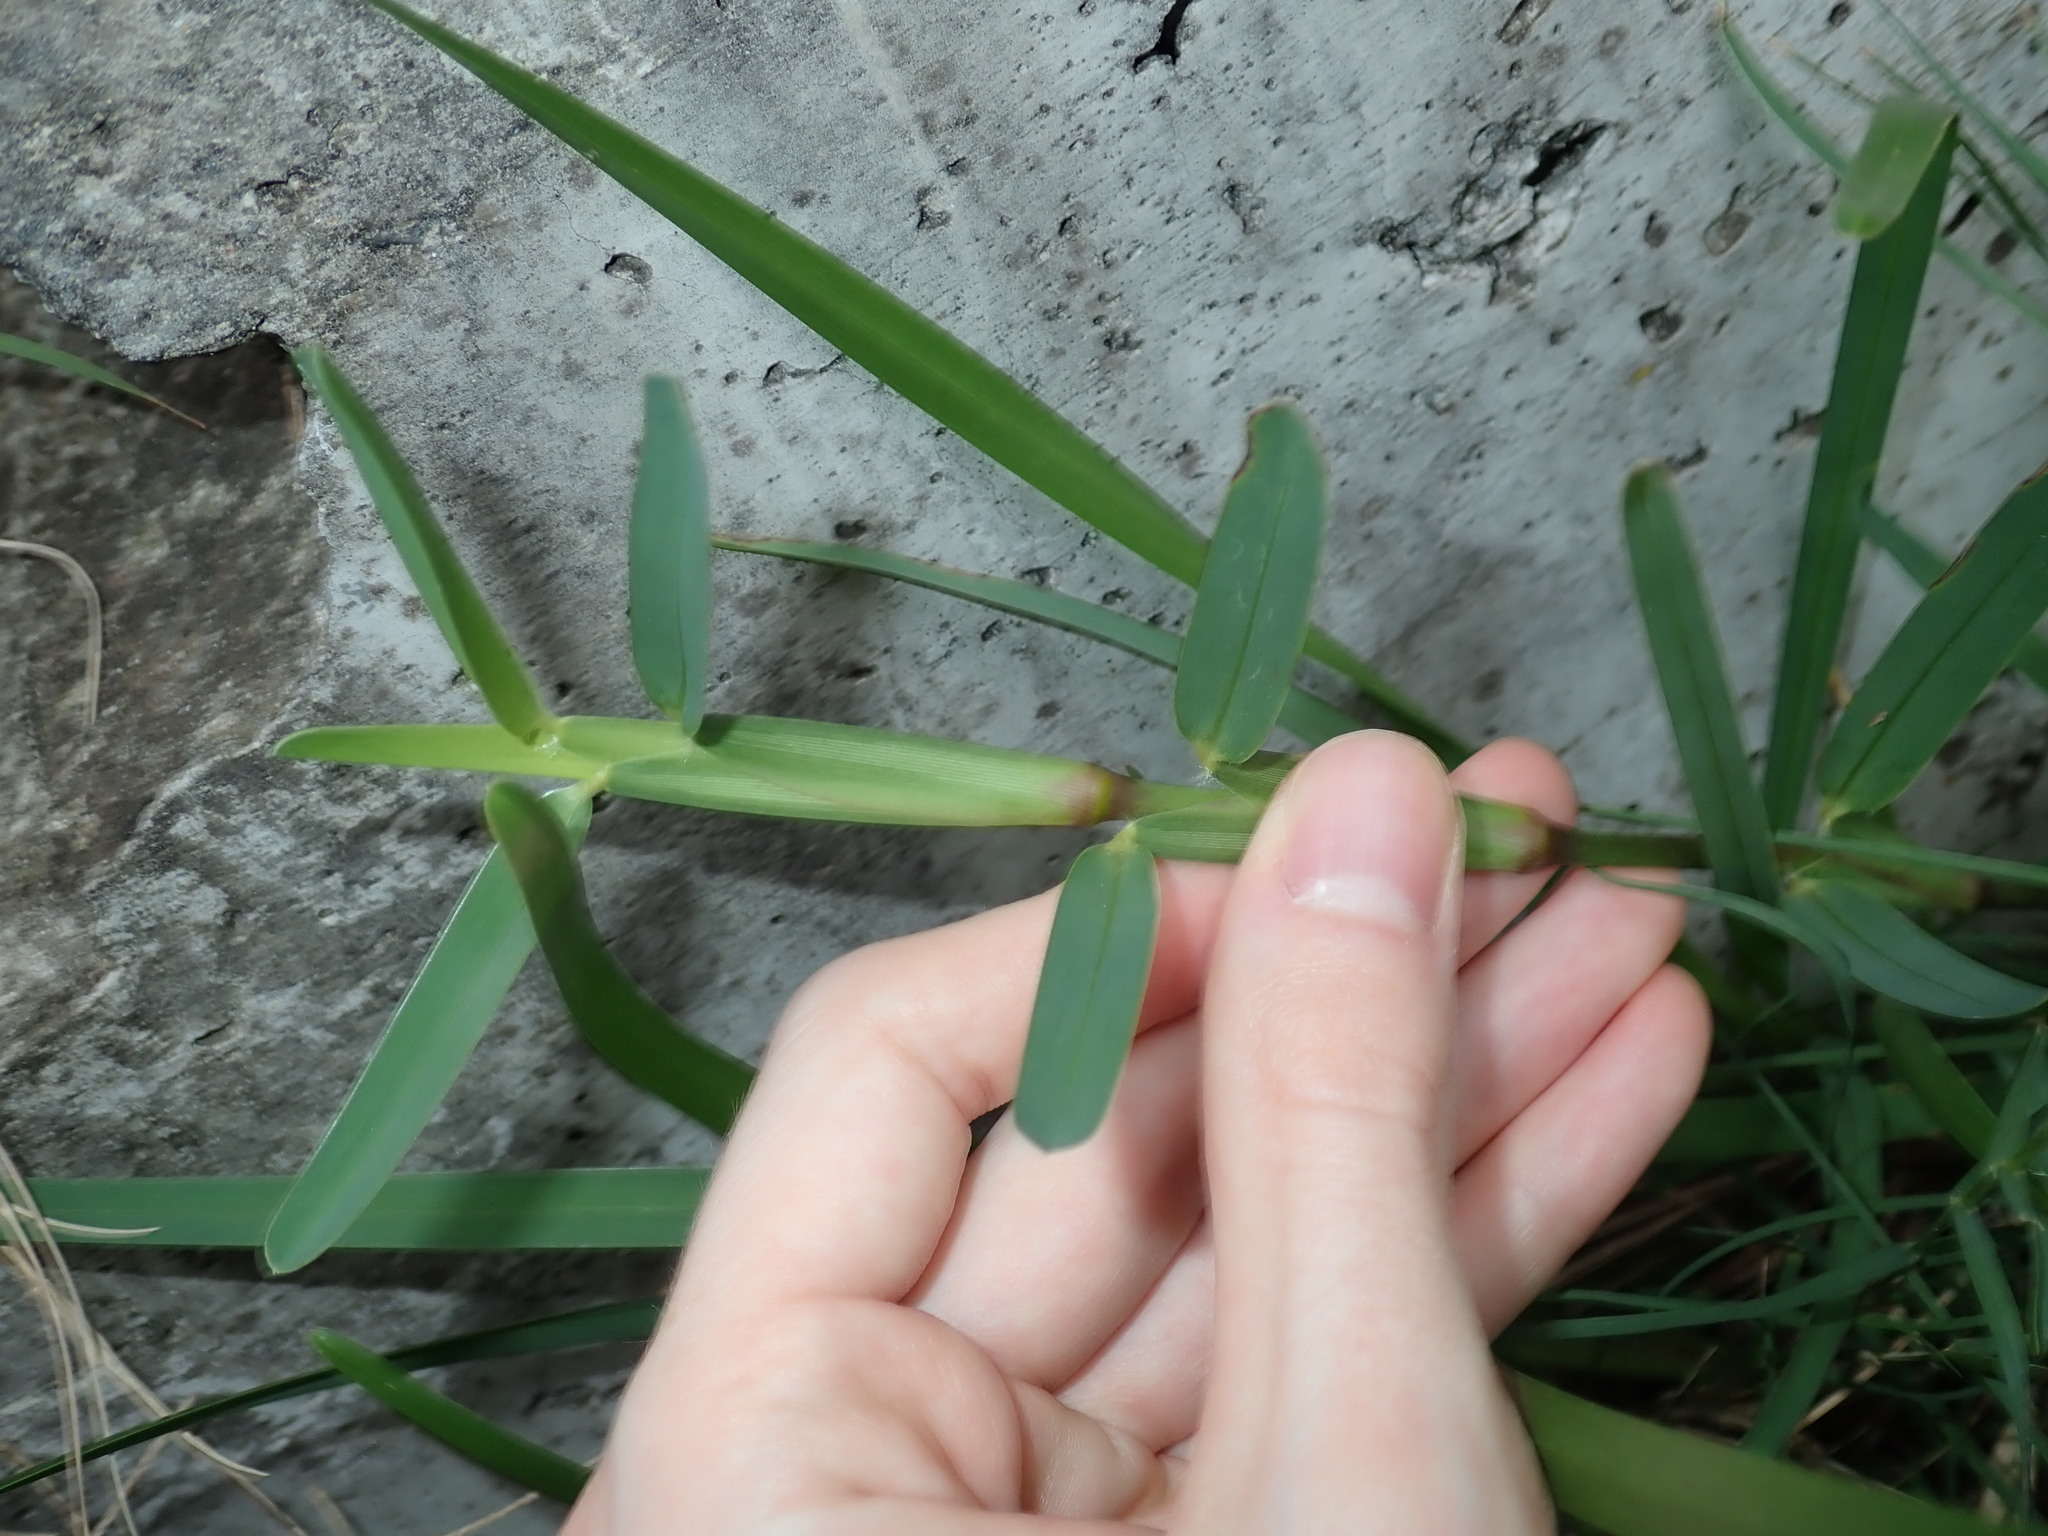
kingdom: Plantae
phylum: Tracheophyta
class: Liliopsida
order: Poales
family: Poaceae
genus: Stenotaphrum
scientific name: Stenotaphrum secundatum
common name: St. augustine grass
